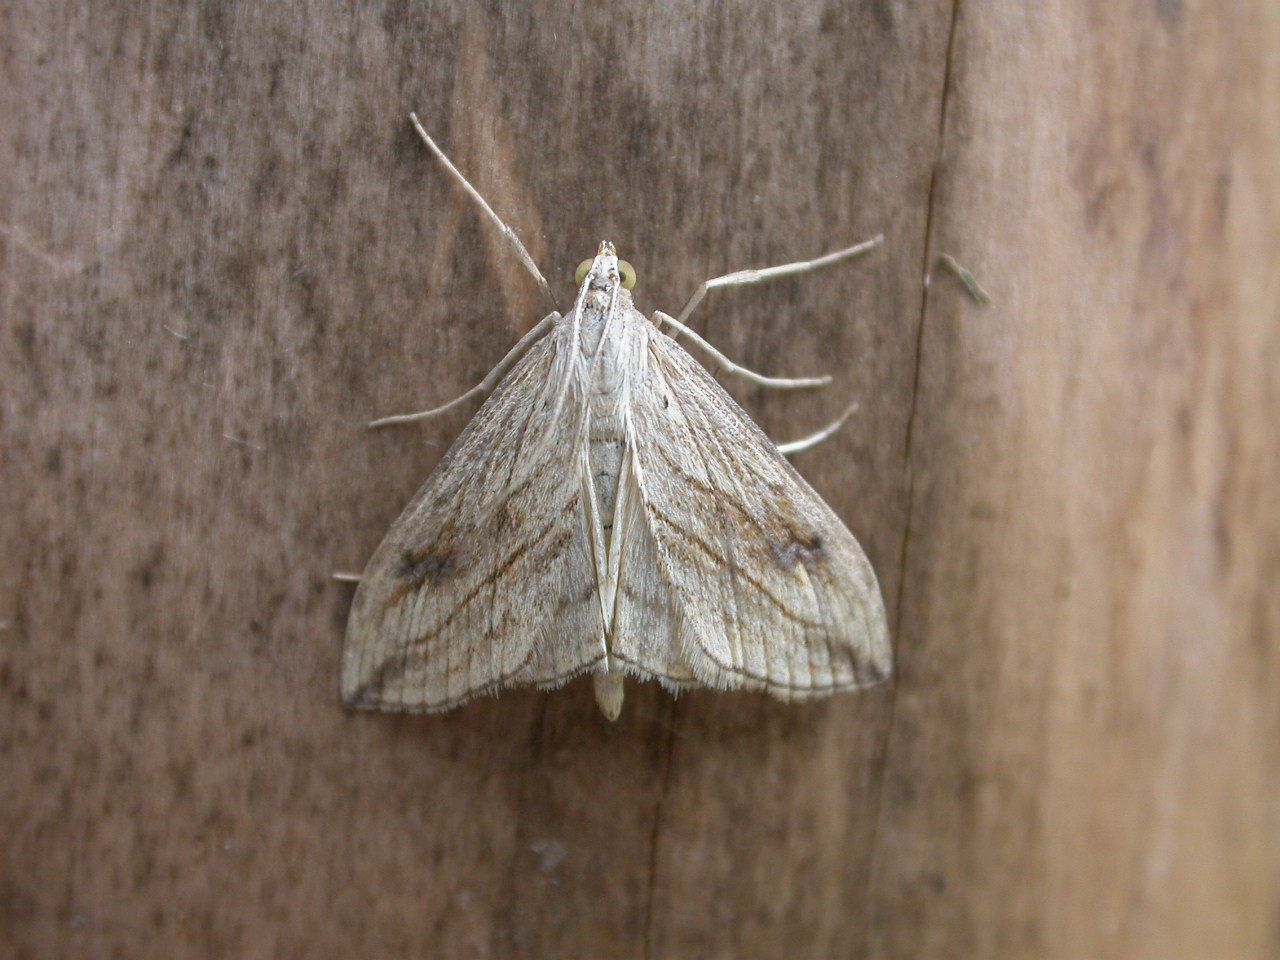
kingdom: Animalia
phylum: Arthropoda
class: Insecta
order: Lepidoptera
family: Crambidae
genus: Evergestis
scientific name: Evergestis forficalis
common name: Garden pebble
